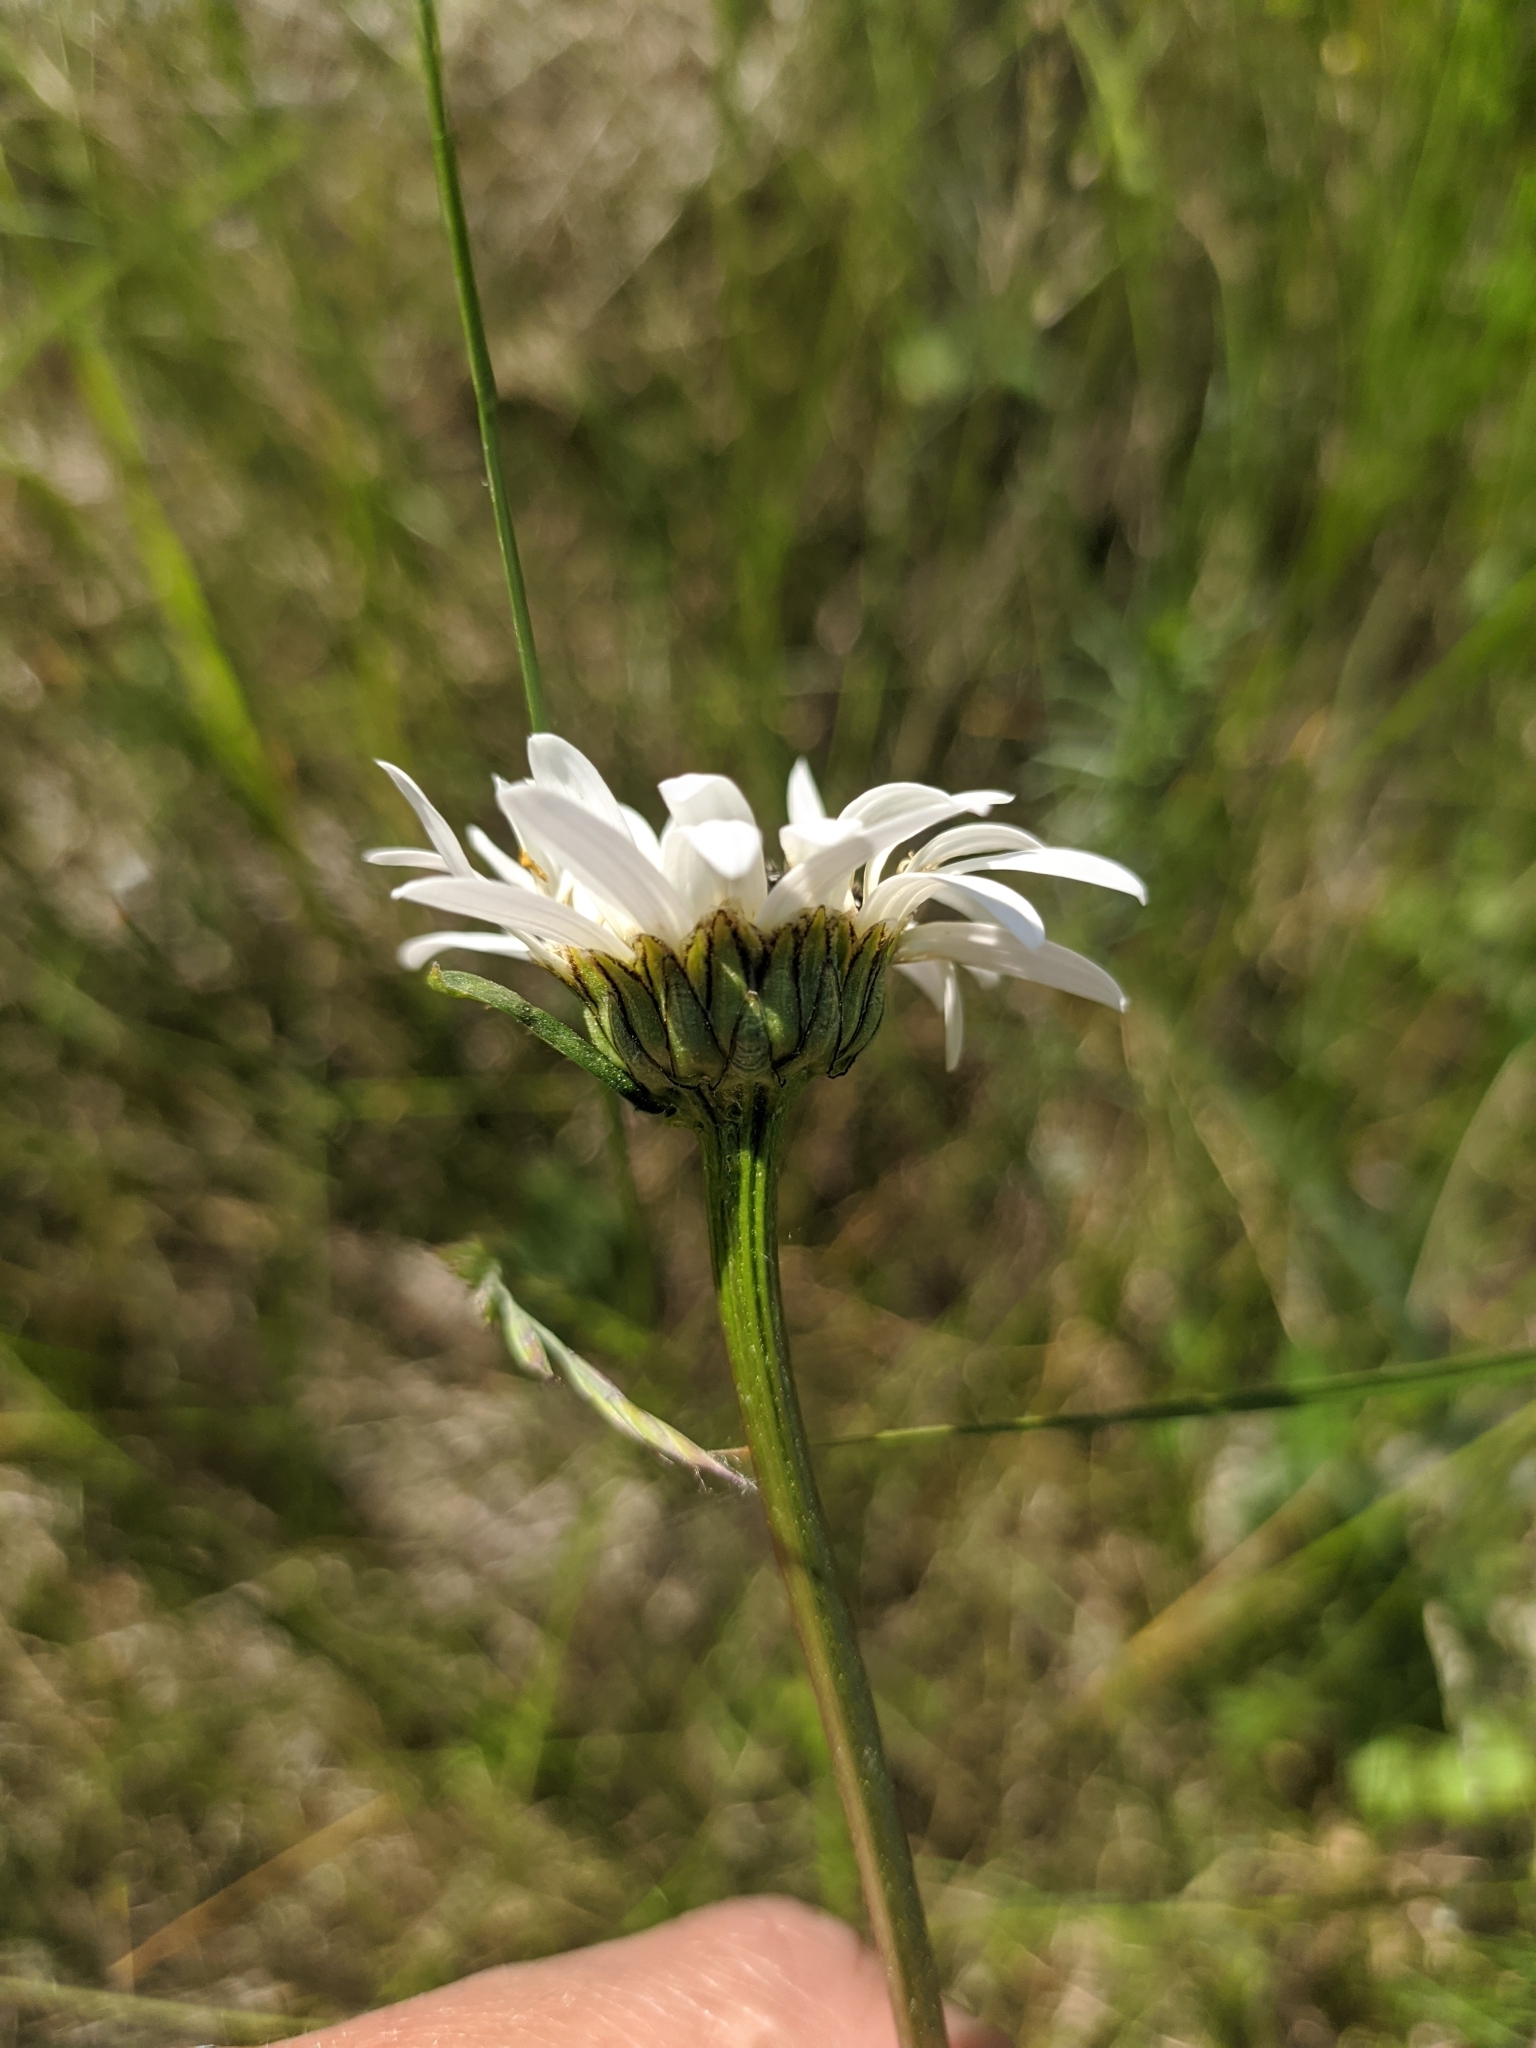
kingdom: Plantae
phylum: Tracheophyta
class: Magnoliopsida
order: Asterales
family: Asteraceae
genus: Leucanthemum
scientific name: Leucanthemum vulgare
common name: Oxeye daisy
